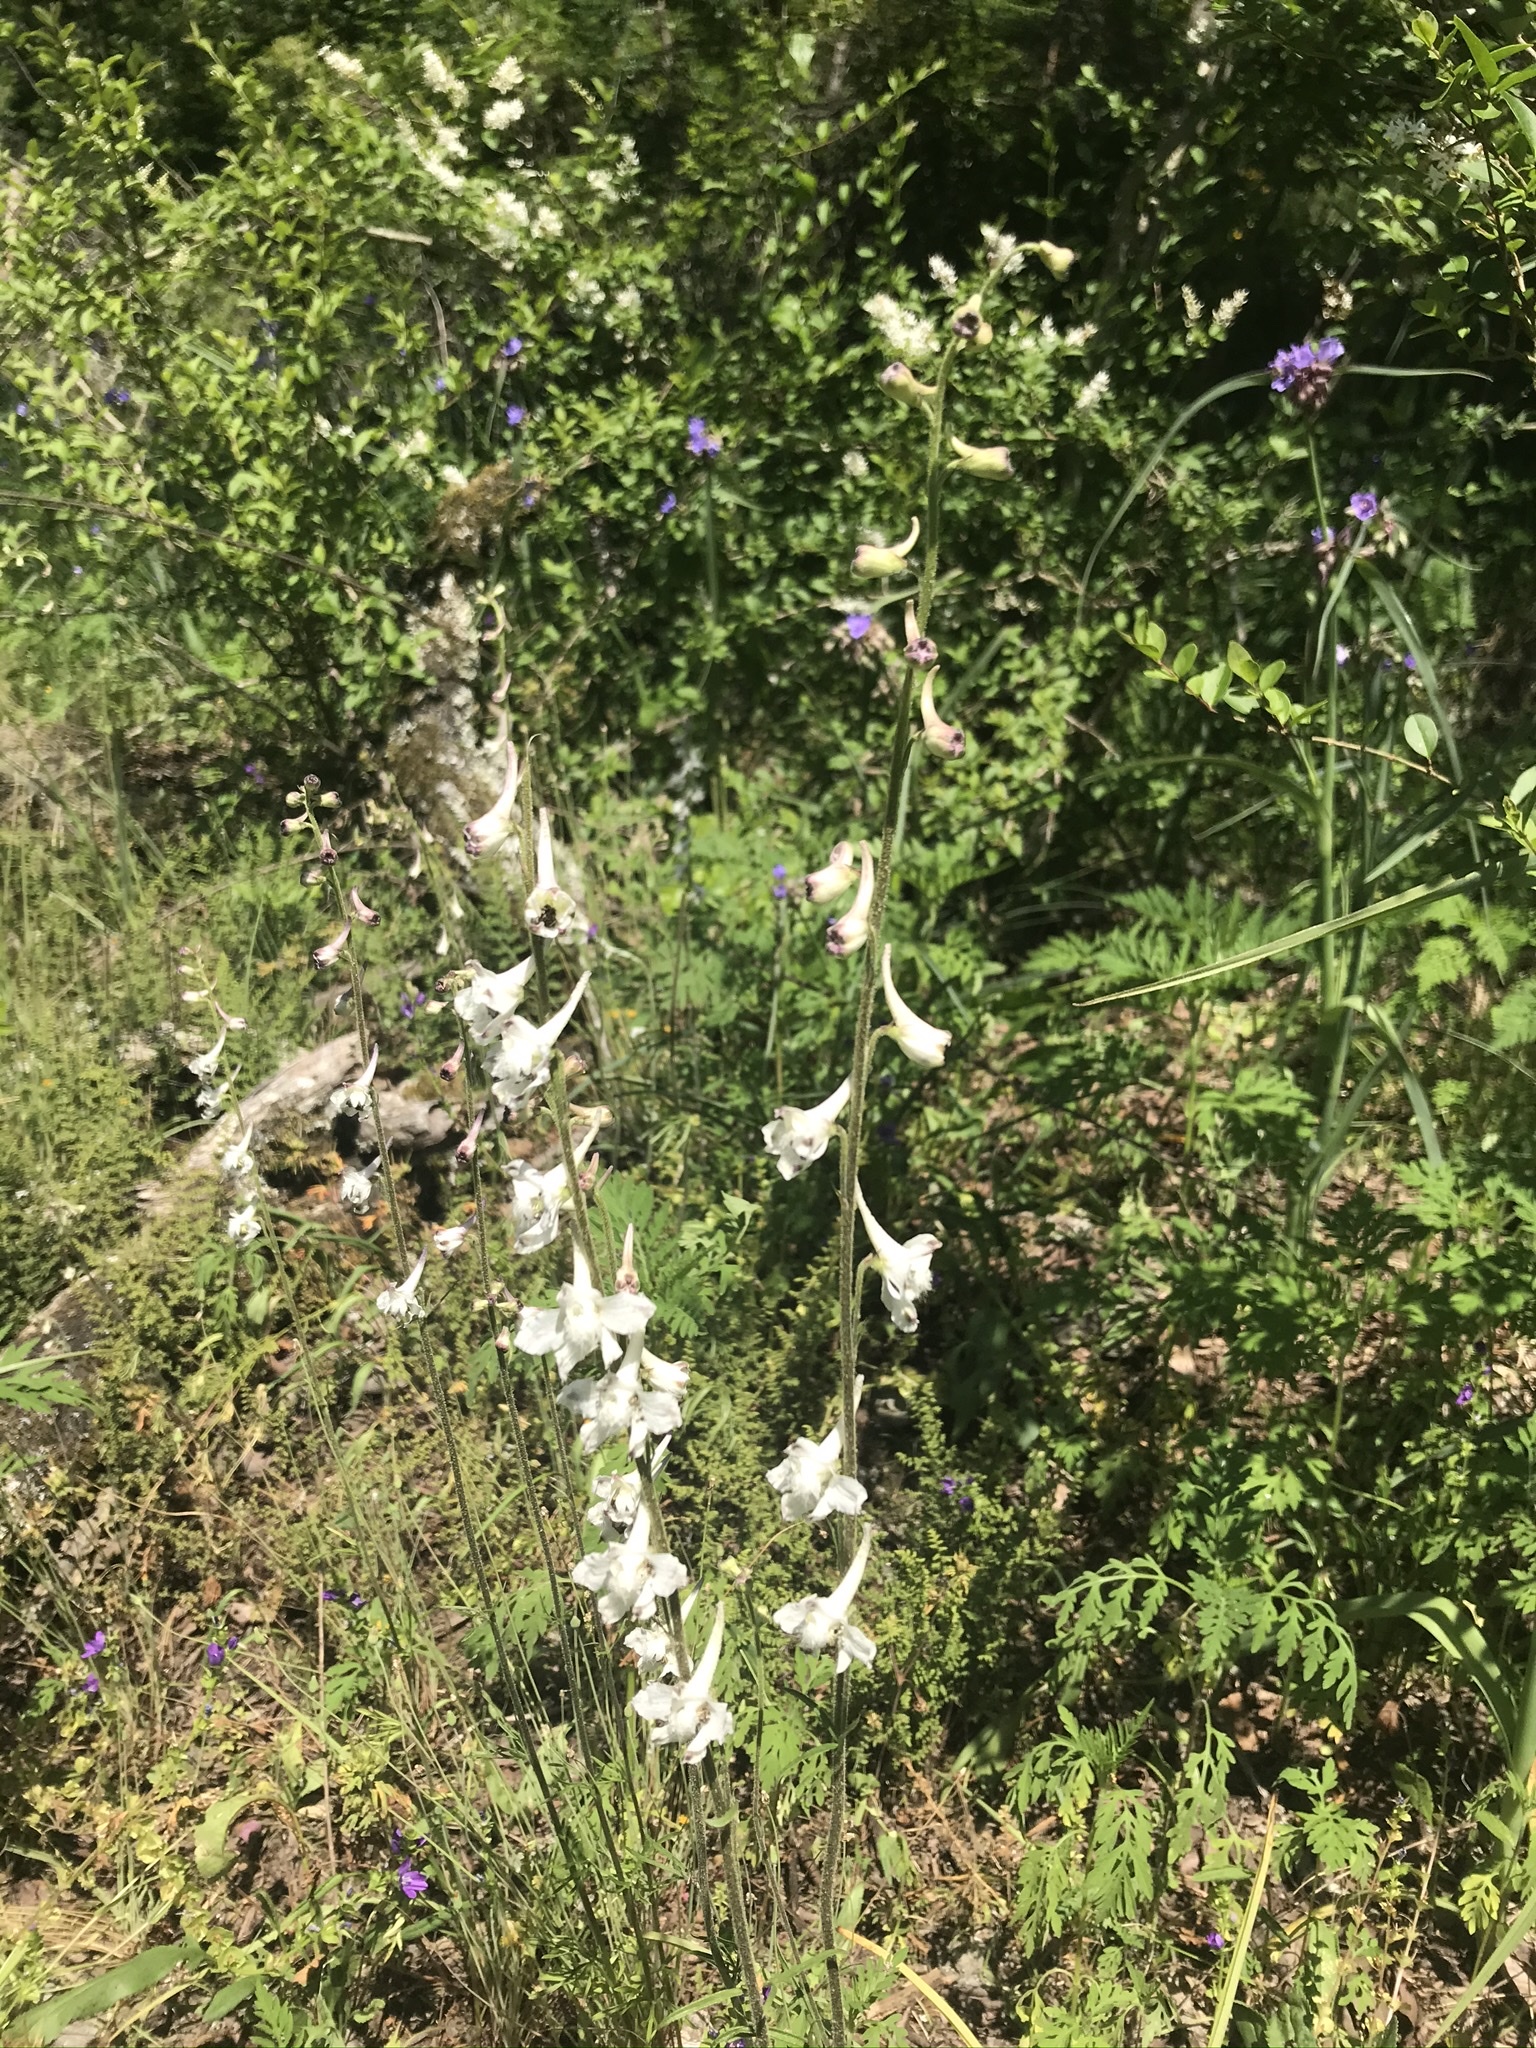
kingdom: Plantae
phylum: Tracheophyta
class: Magnoliopsida
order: Ranunculales
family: Ranunculaceae
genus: Delphinium
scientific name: Delphinium carolinianum
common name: Carolina larkspur
